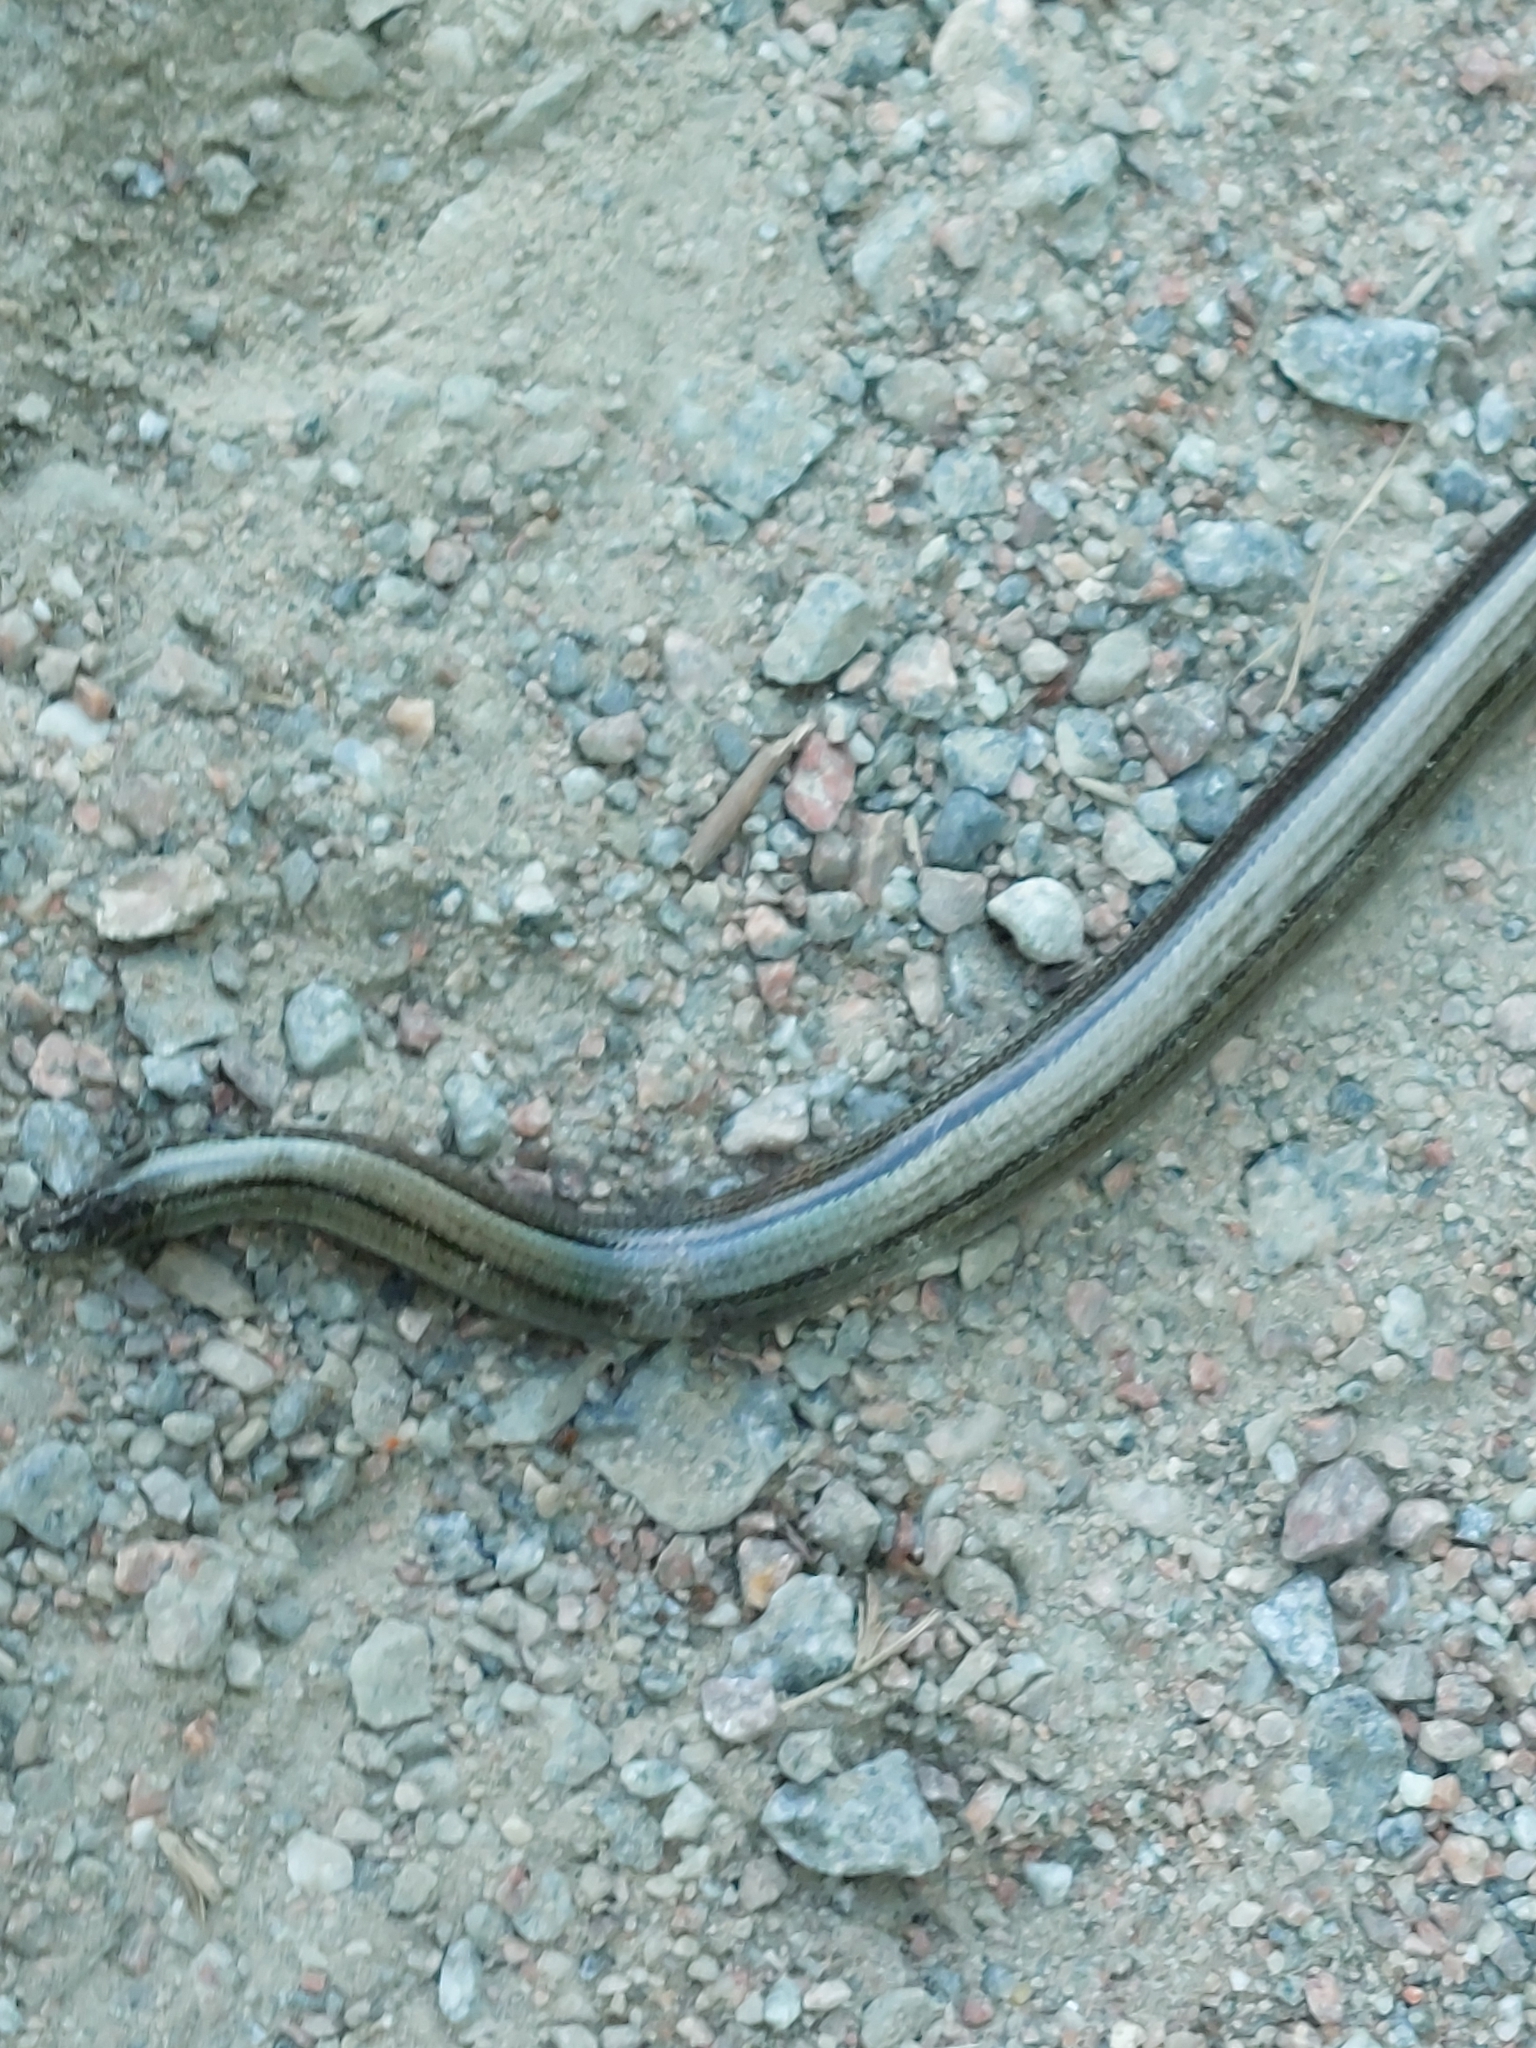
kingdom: Animalia
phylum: Chordata
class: Squamata
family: Anguidae
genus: Anguis
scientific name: Anguis fragilis
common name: Slow worm
